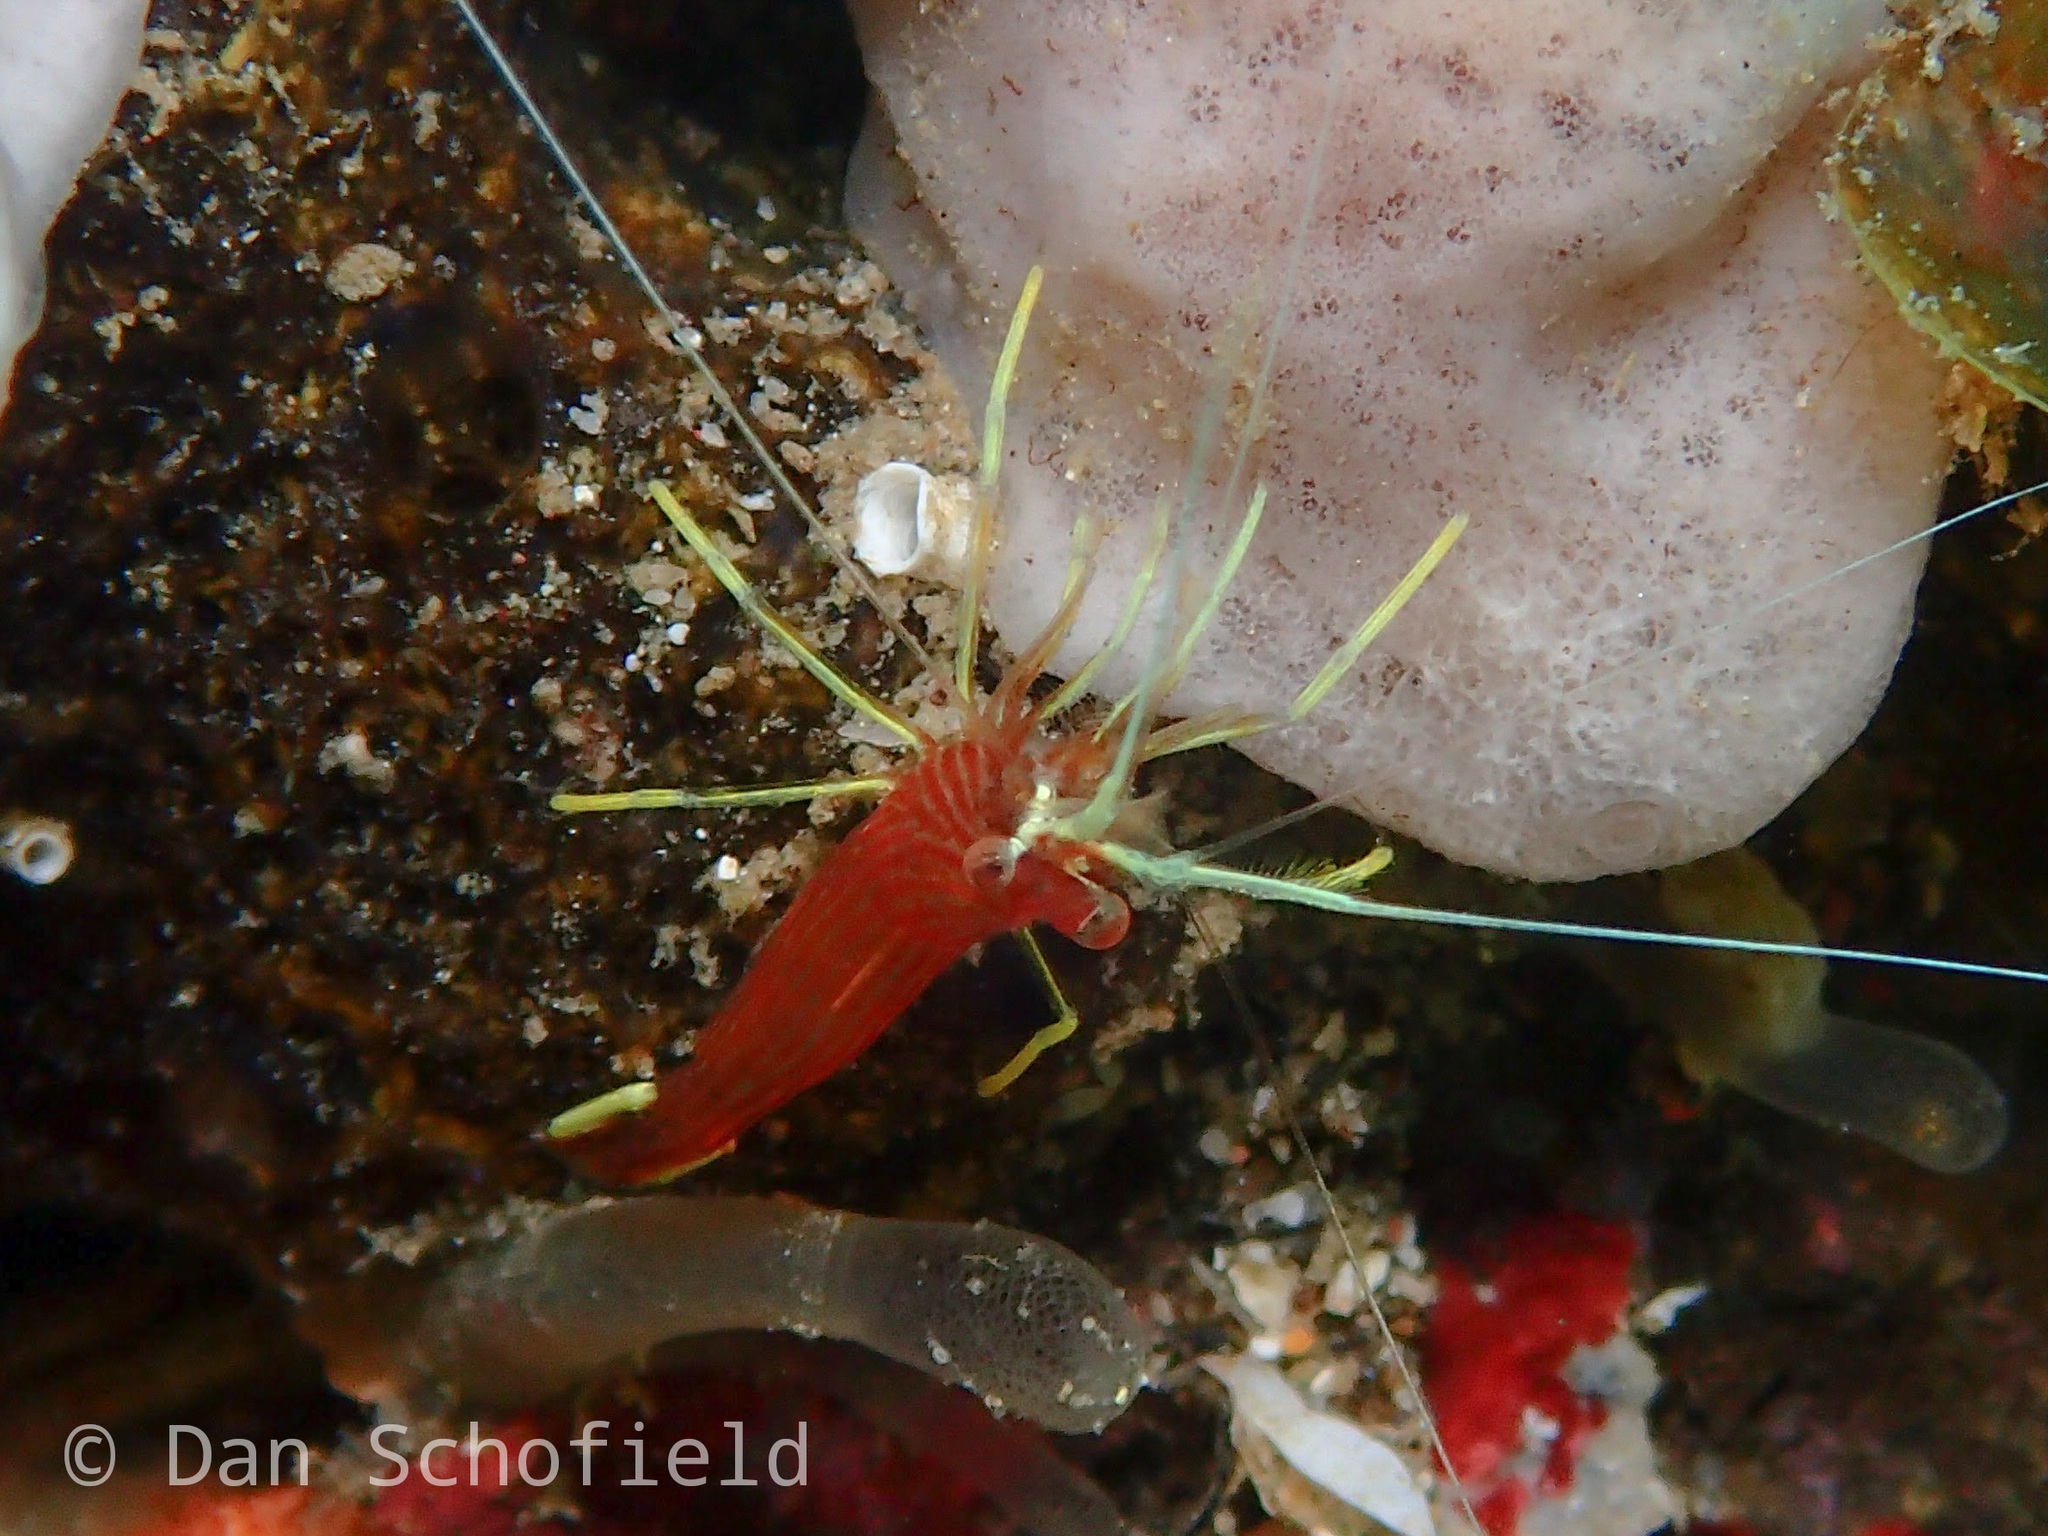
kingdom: Animalia
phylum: Arthropoda
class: Malacostraca
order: Decapoda
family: Lysmatidae
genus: Lysmatella
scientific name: Lysmatella prima
